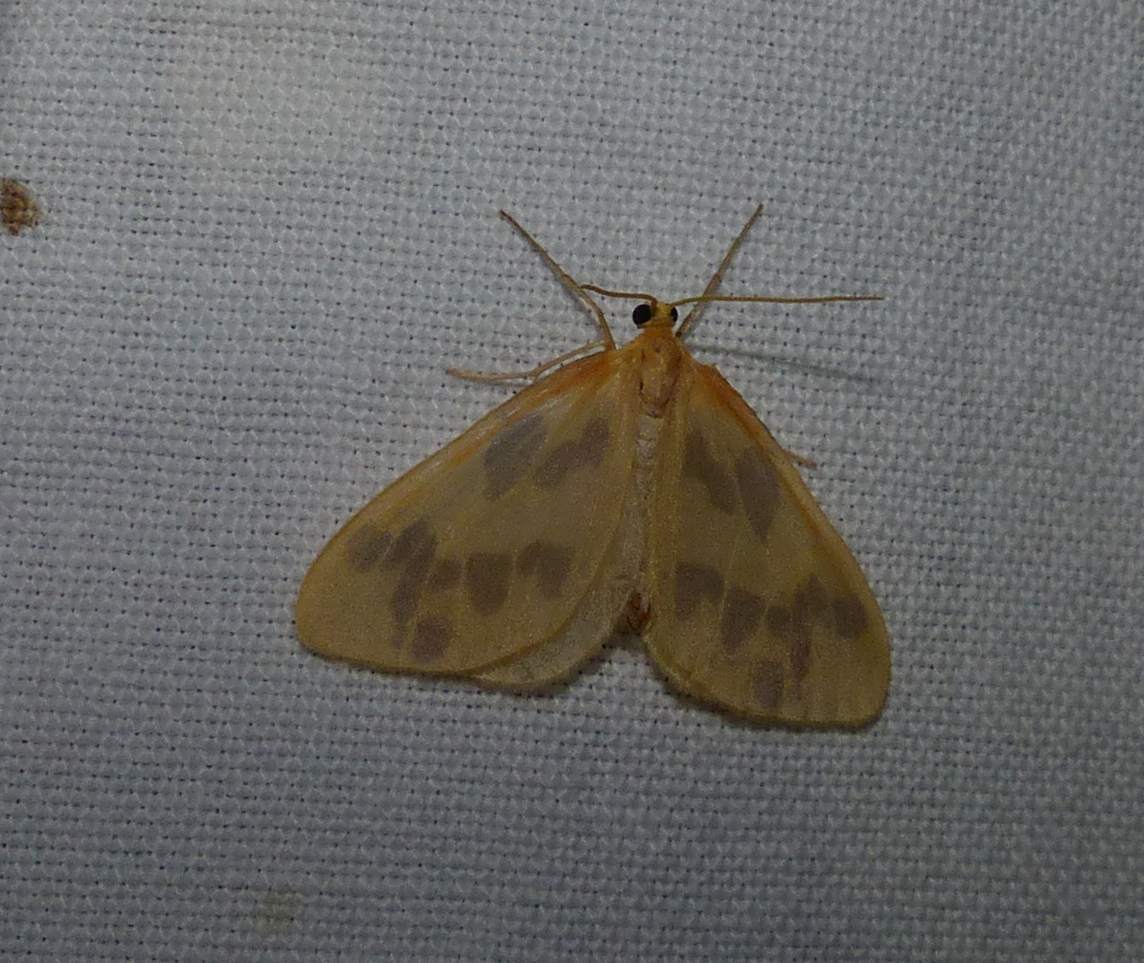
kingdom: Animalia
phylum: Arthropoda
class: Insecta
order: Lepidoptera
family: Geometridae
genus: Eubaphe
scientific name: Eubaphe mendica
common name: Beggar
